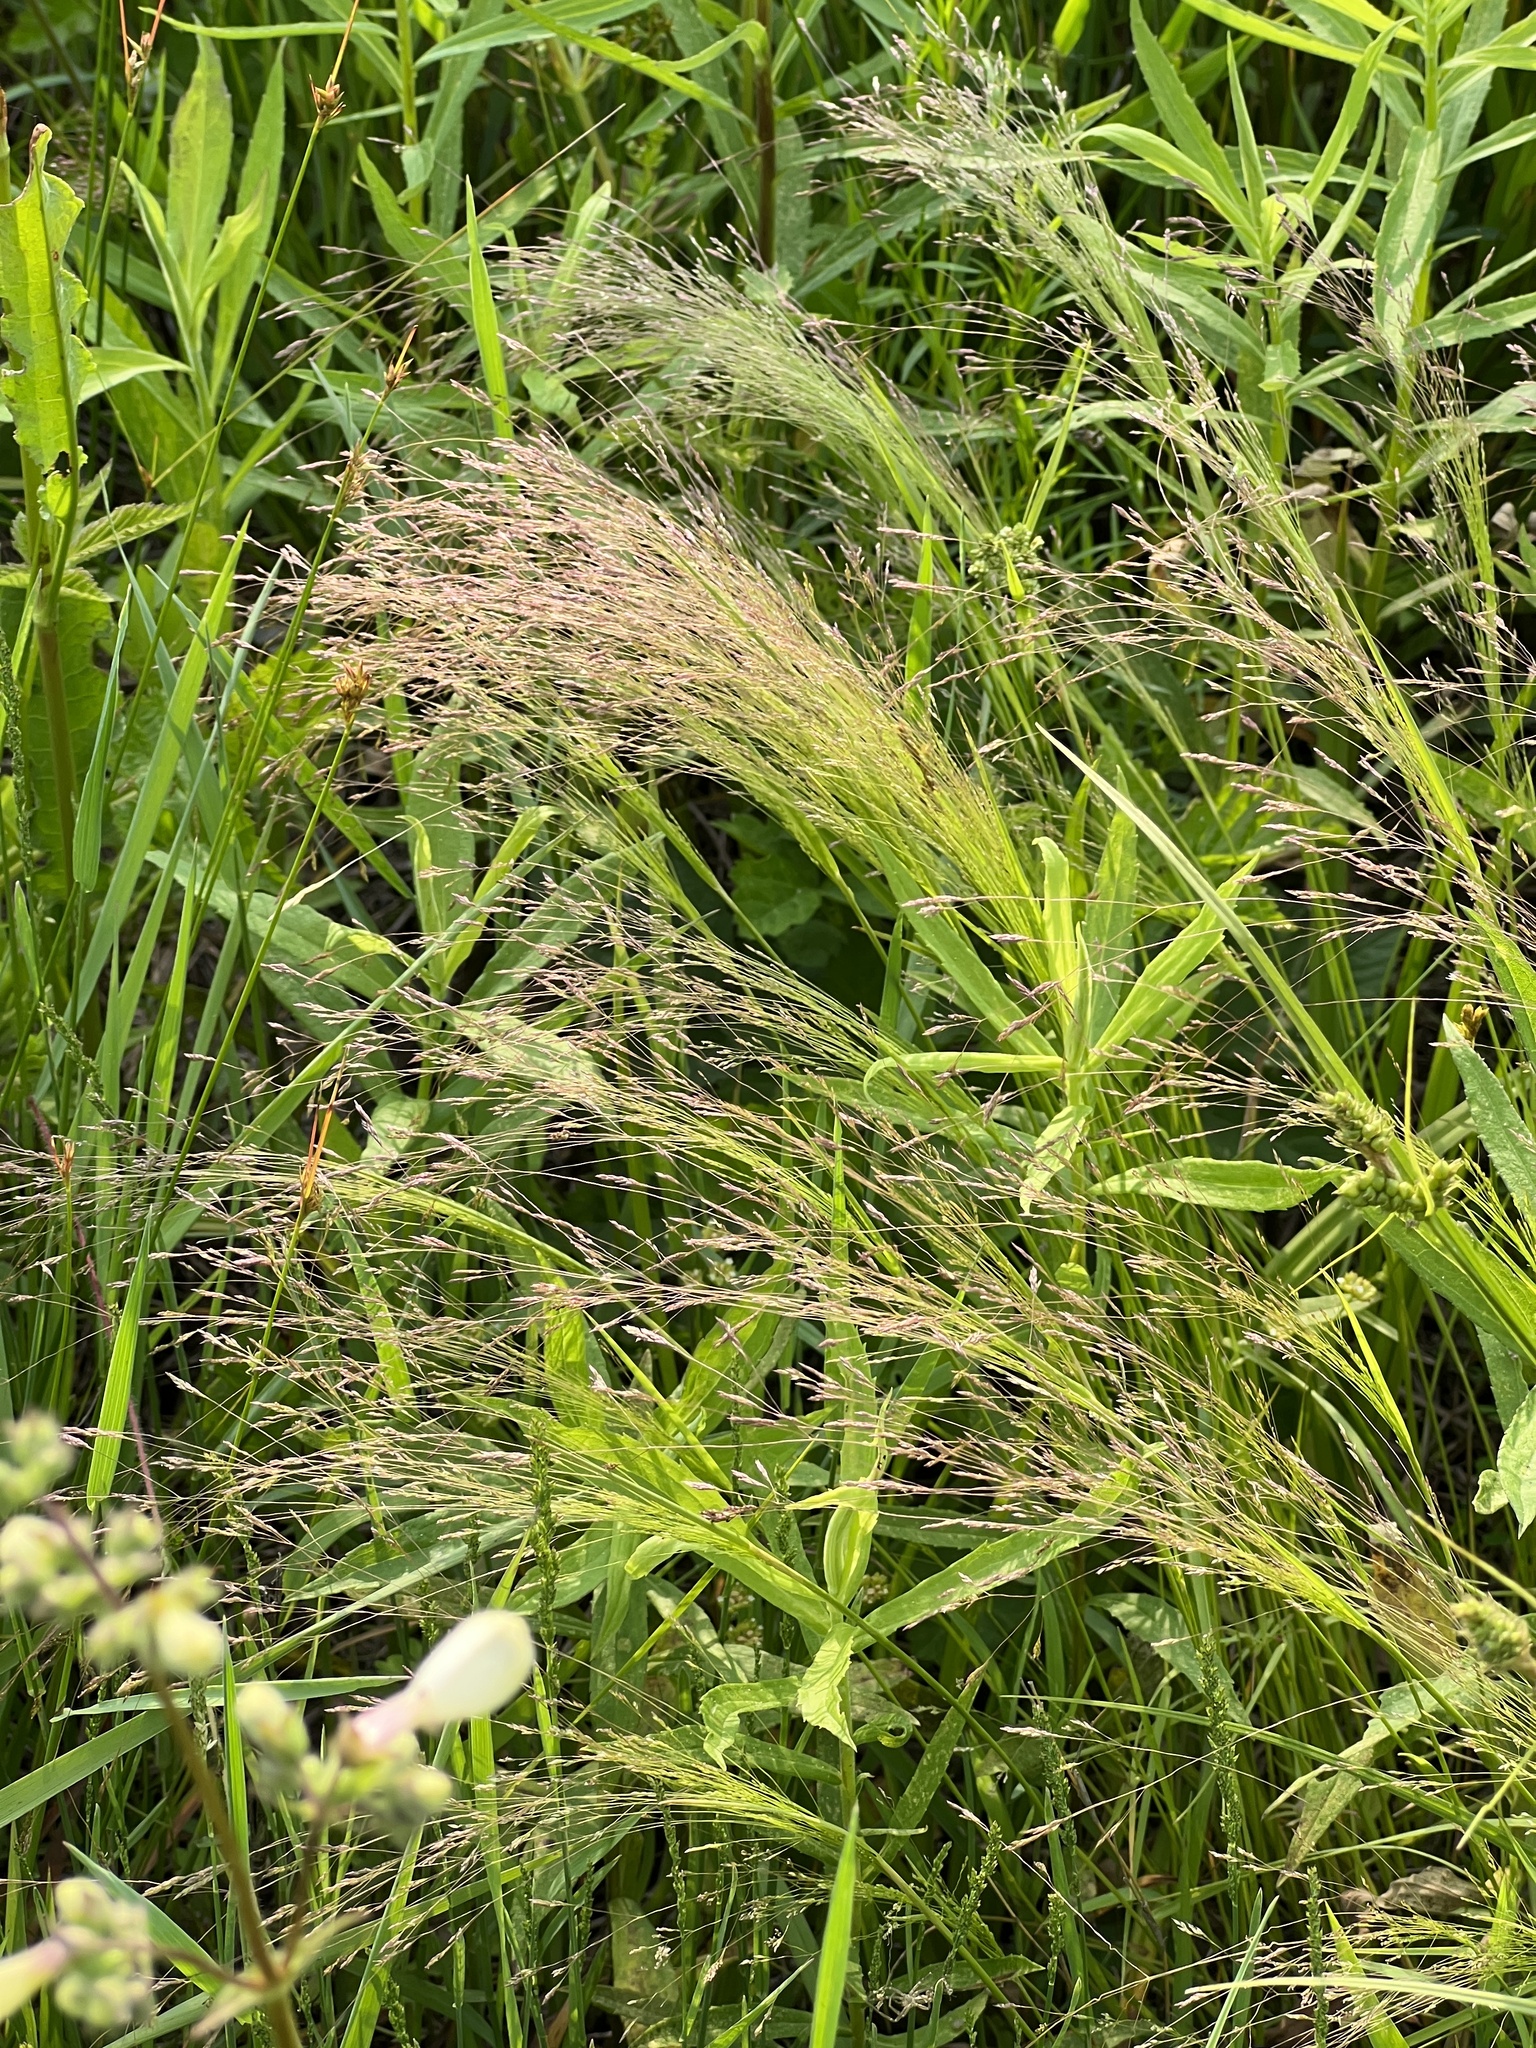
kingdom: Plantae
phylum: Tracheophyta
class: Liliopsida
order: Poales
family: Poaceae
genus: Agrostis
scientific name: Agrostis hyemalis
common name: Small bent
